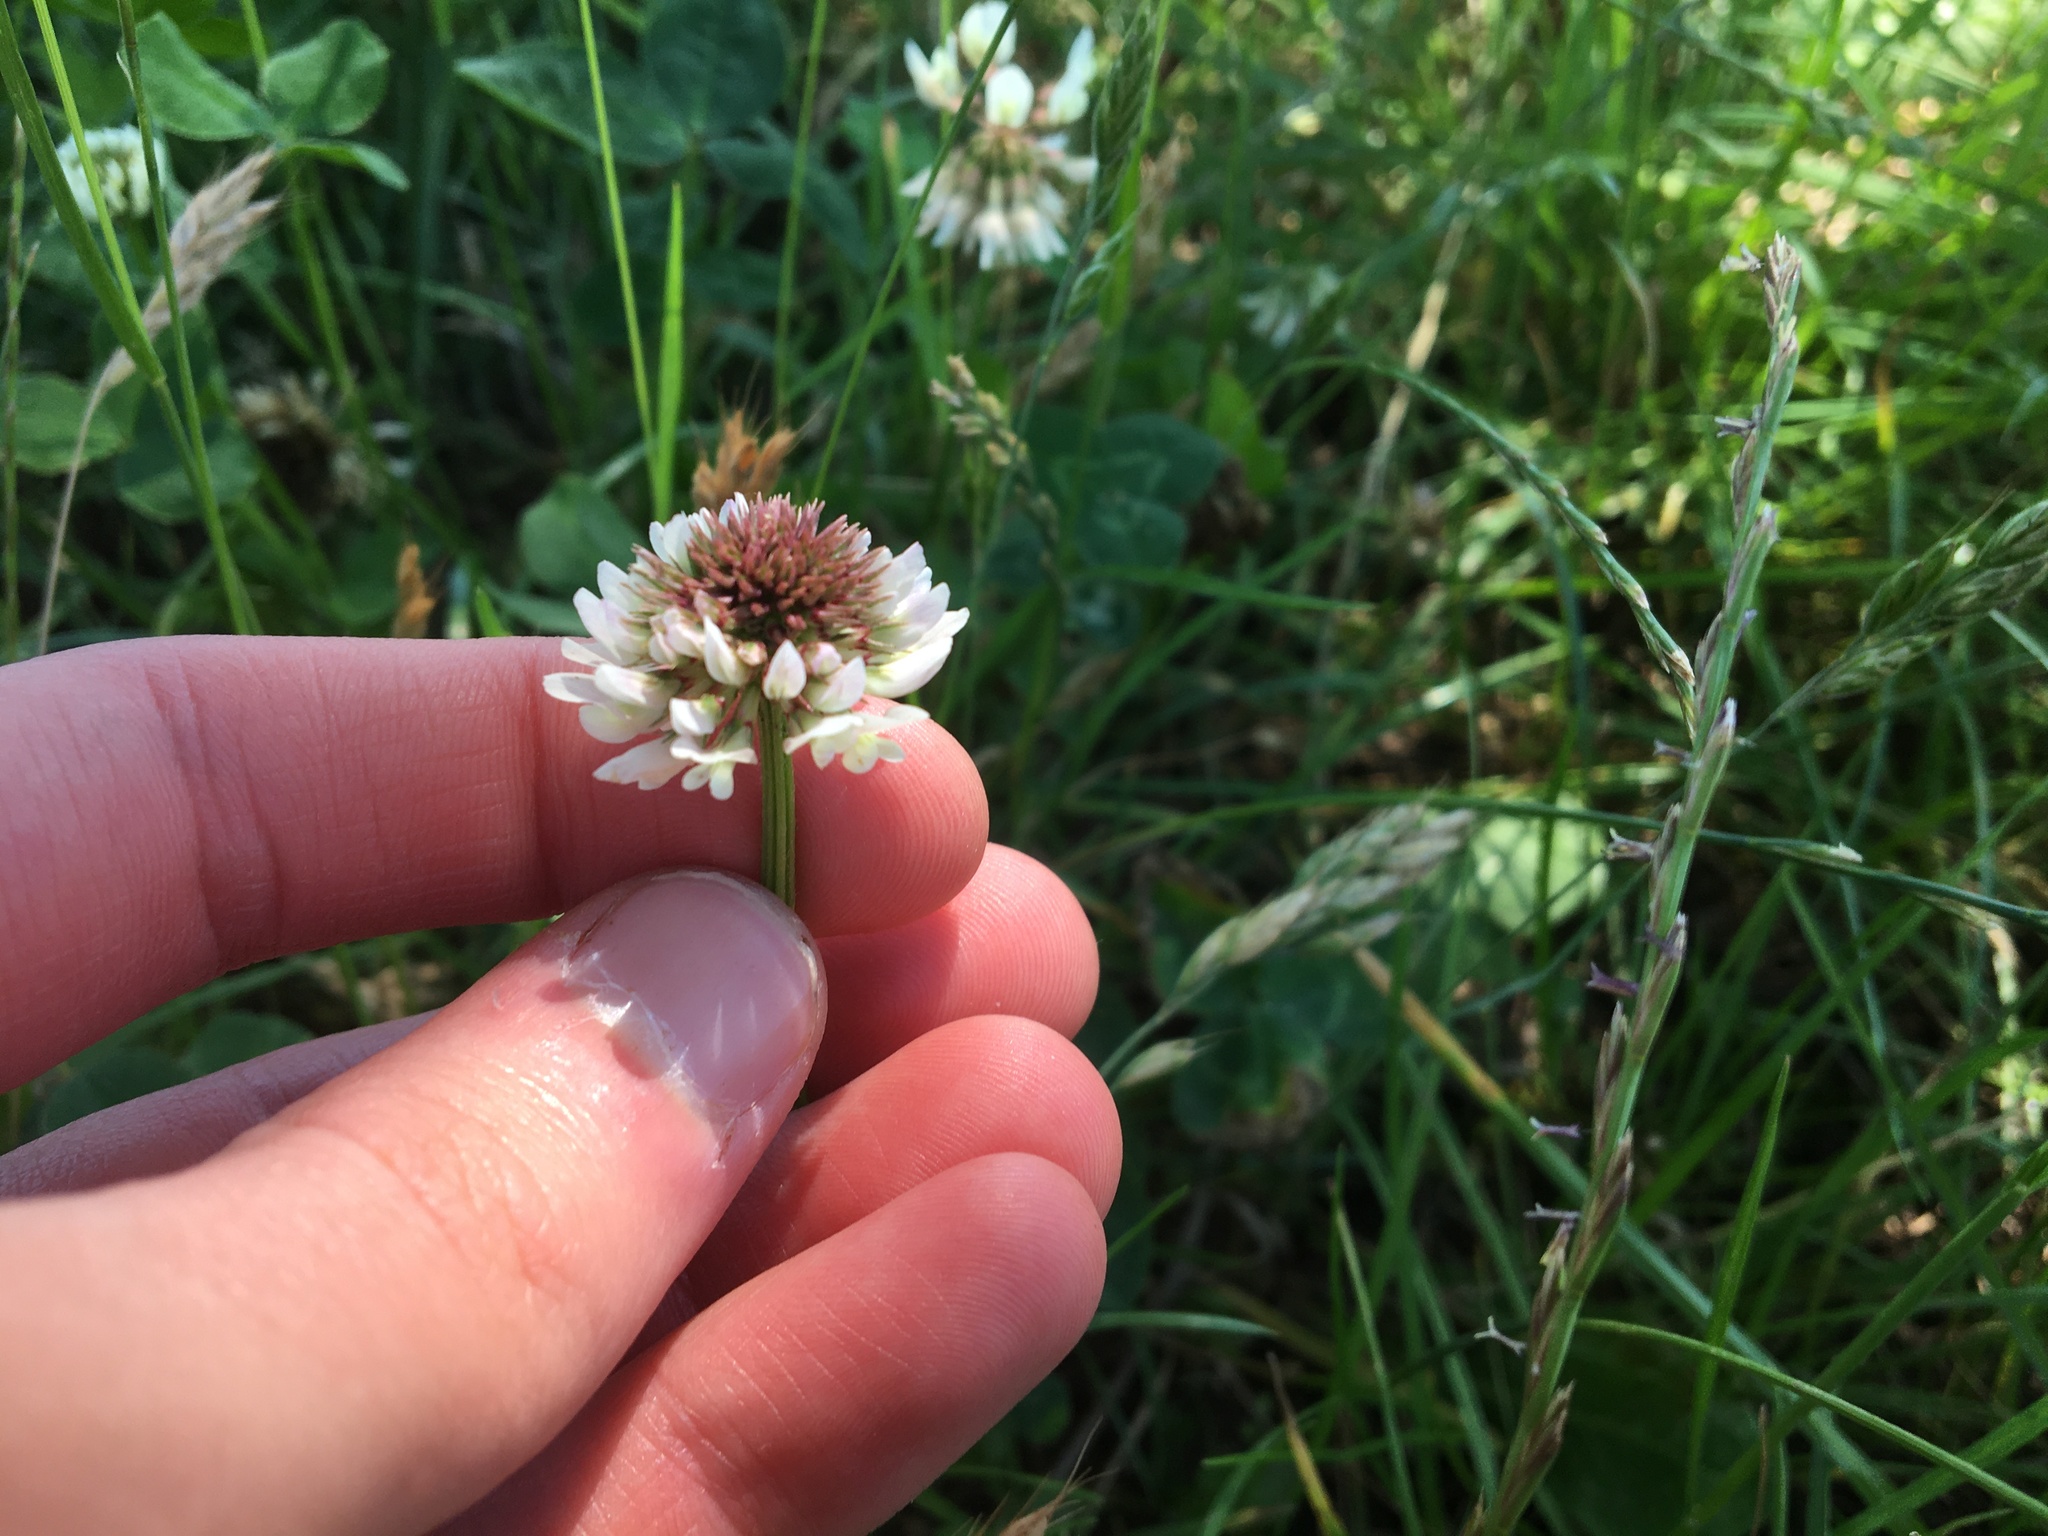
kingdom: Plantae
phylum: Tracheophyta
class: Magnoliopsida
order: Fabales
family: Fabaceae
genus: Trifolium
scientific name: Trifolium repens
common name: White clover
